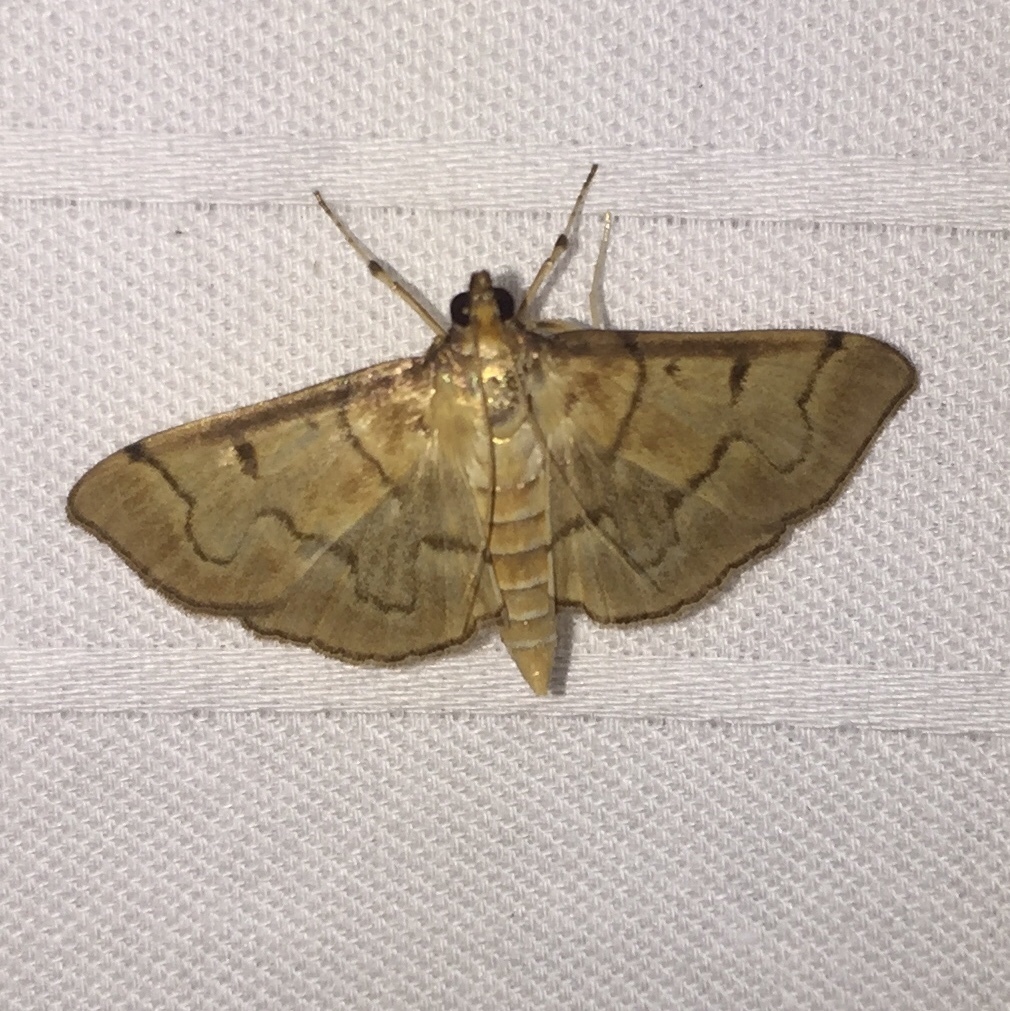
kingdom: Animalia
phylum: Arthropoda
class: Insecta
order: Lepidoptera
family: Crambidae
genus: Herpetogramma
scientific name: Herpetogramma theseusalis
